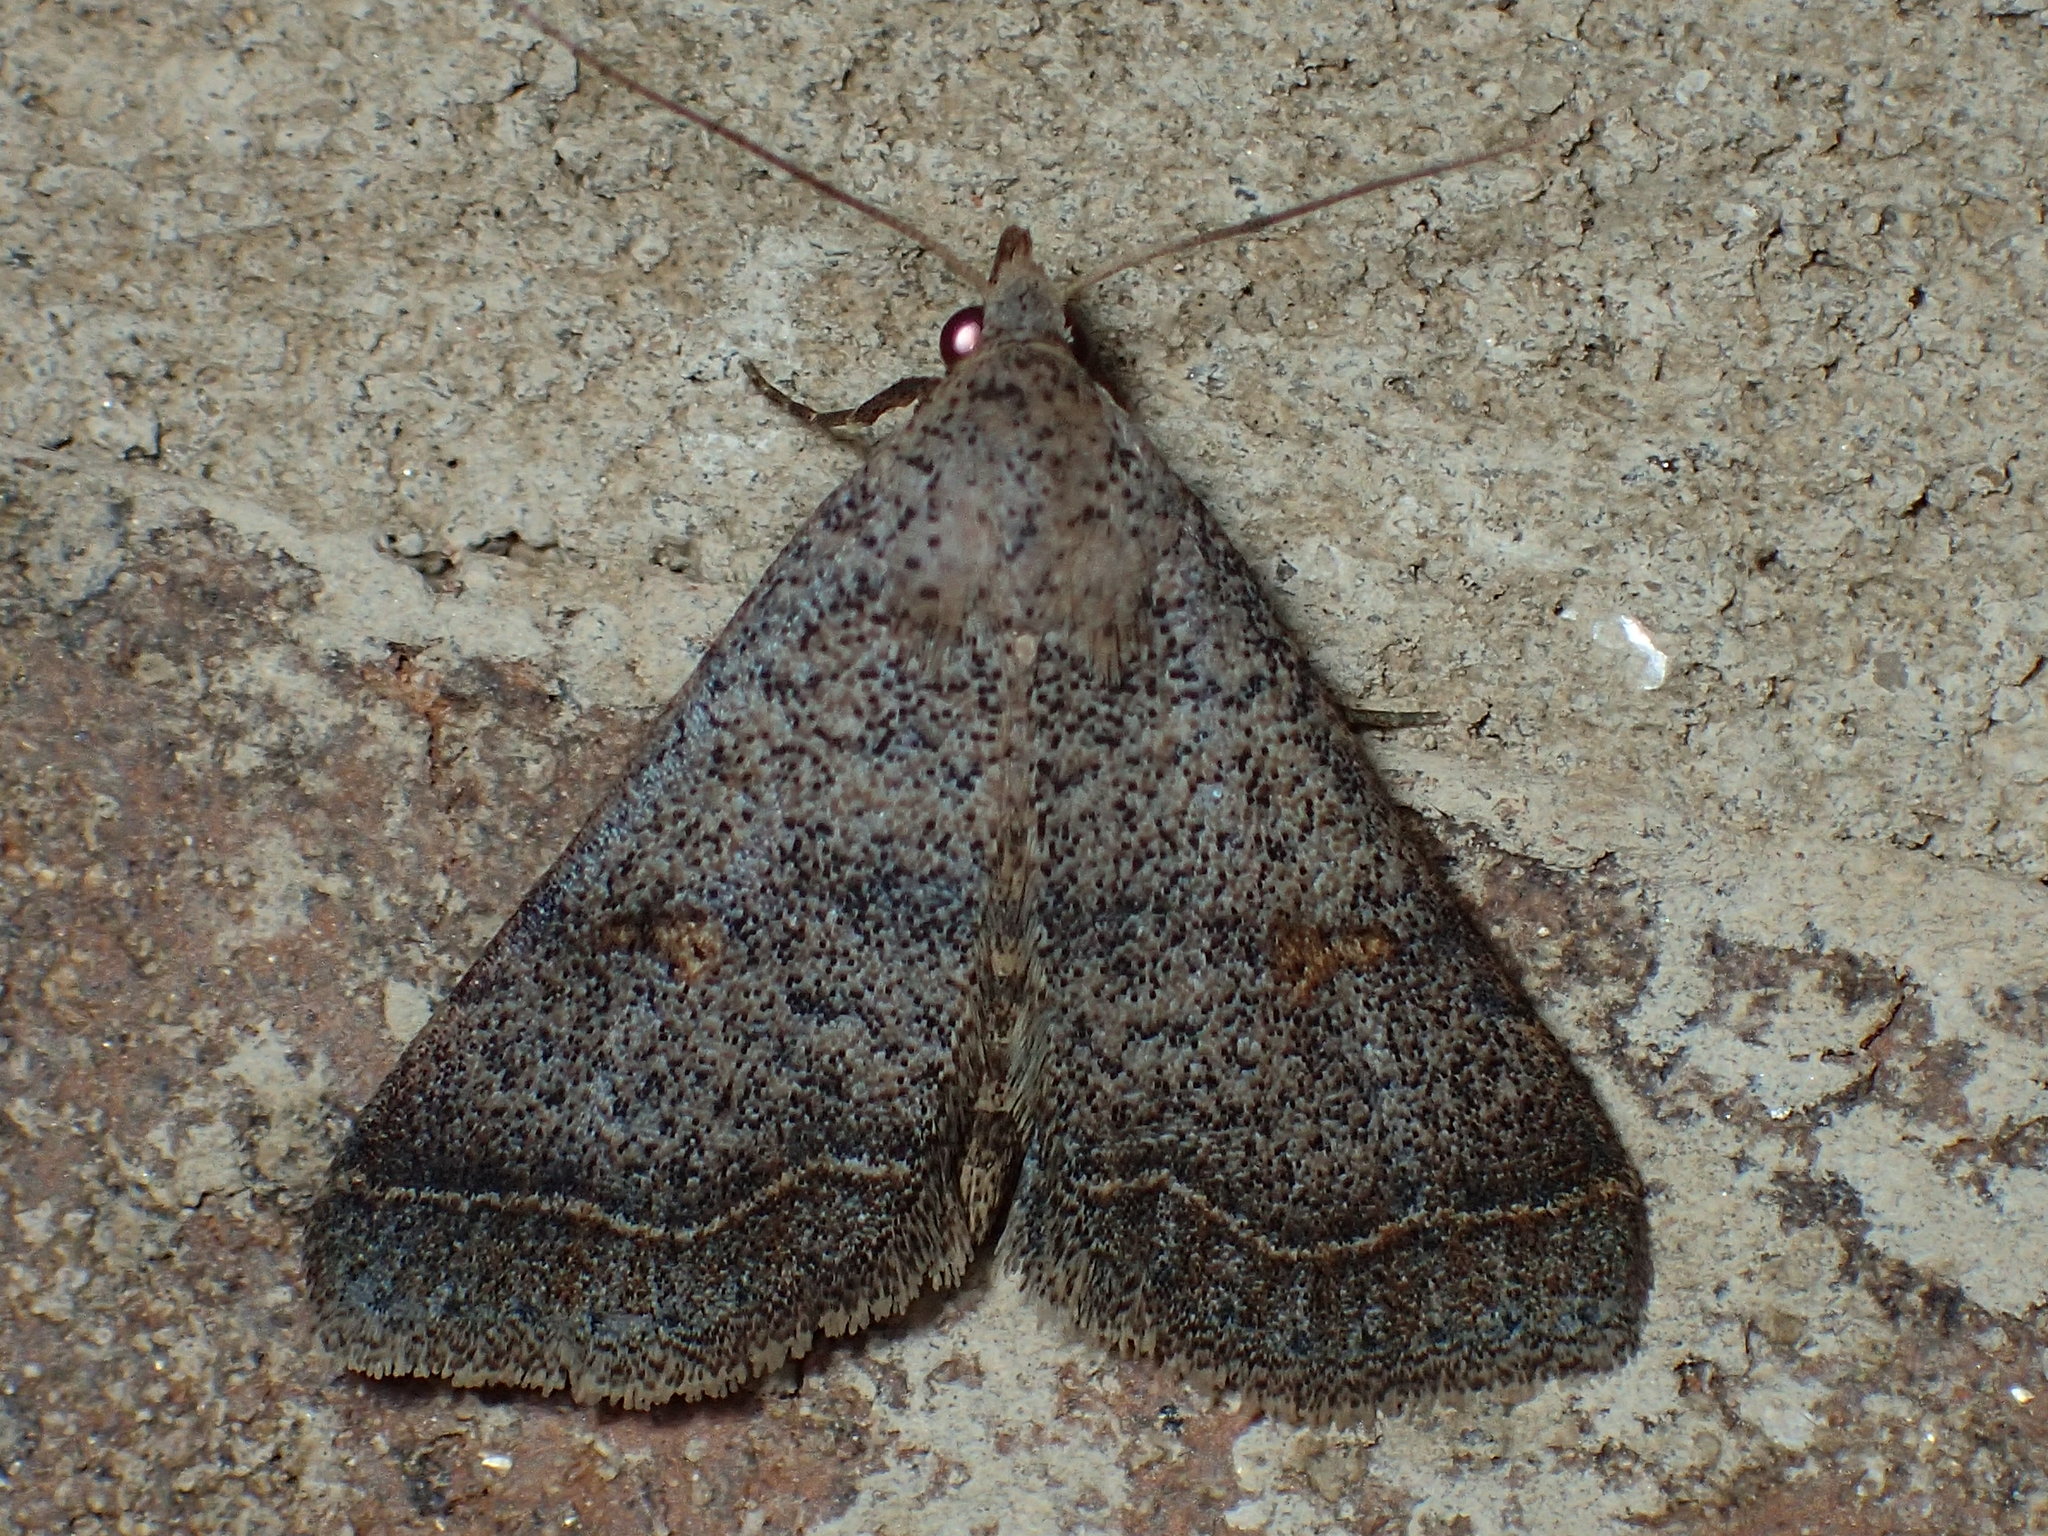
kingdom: Animalia
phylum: Arthropoda
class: Insecta
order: Lepidoptera
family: Erebidae
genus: Bleptina
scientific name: Bleptina caradrinalis
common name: Bent-winged owlet
